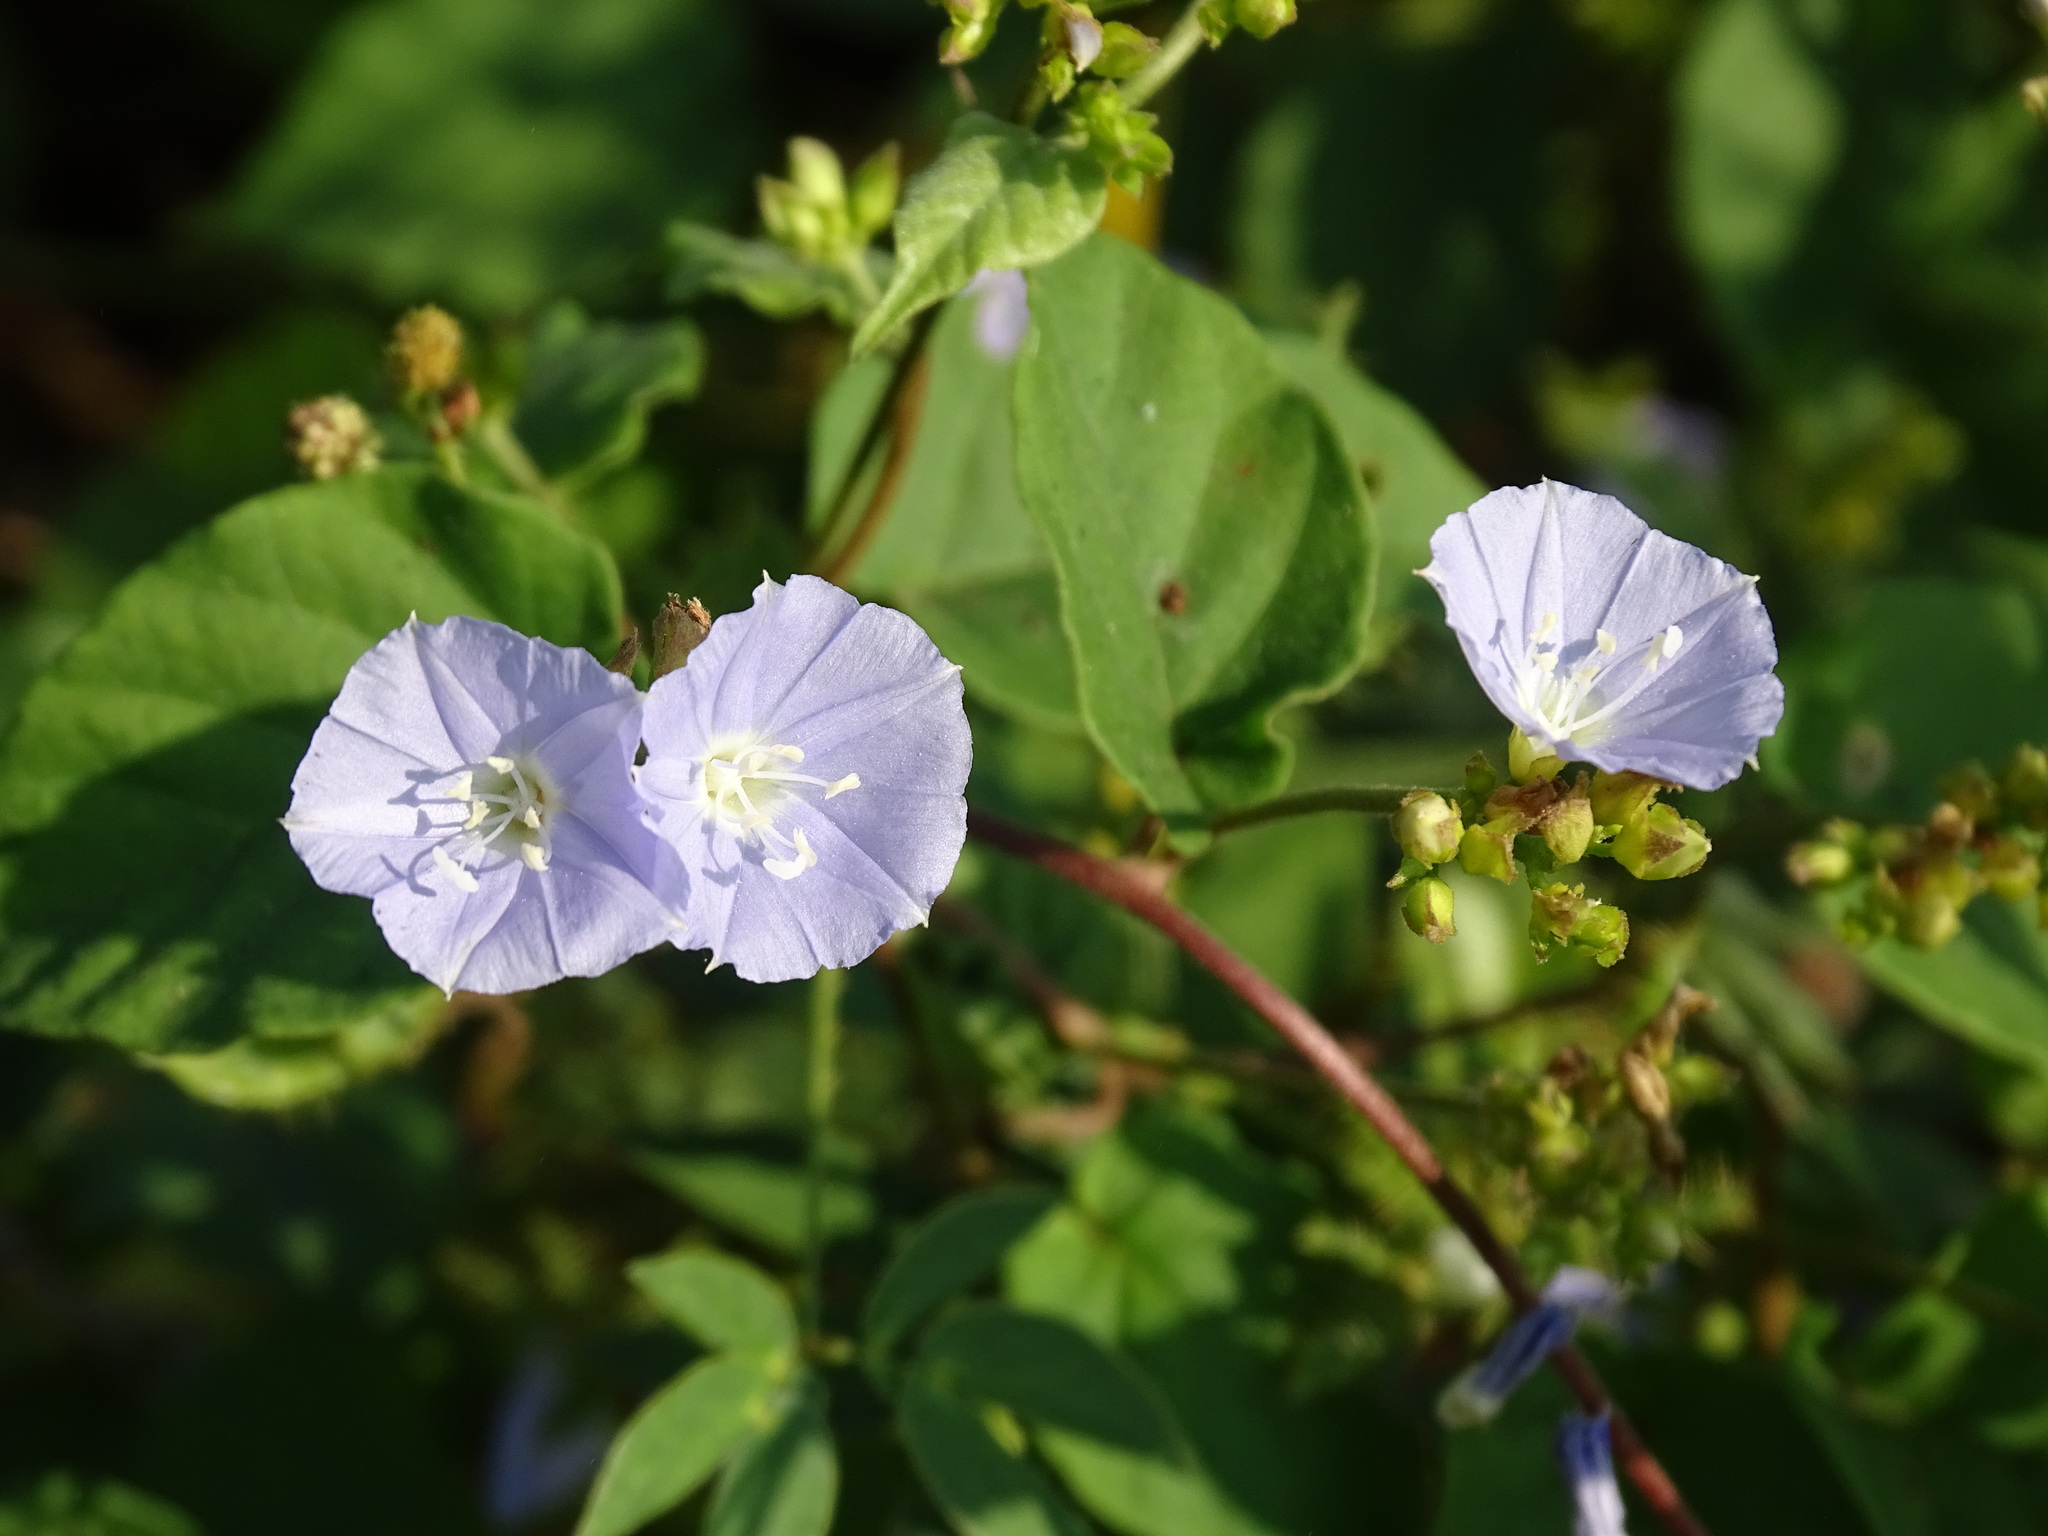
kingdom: Plantae
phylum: Tracheophyta
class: Magnoliopsida
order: Solanales
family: Convolvulaceae
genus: Jacquemontia
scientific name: Jacquemontia oaxacana
